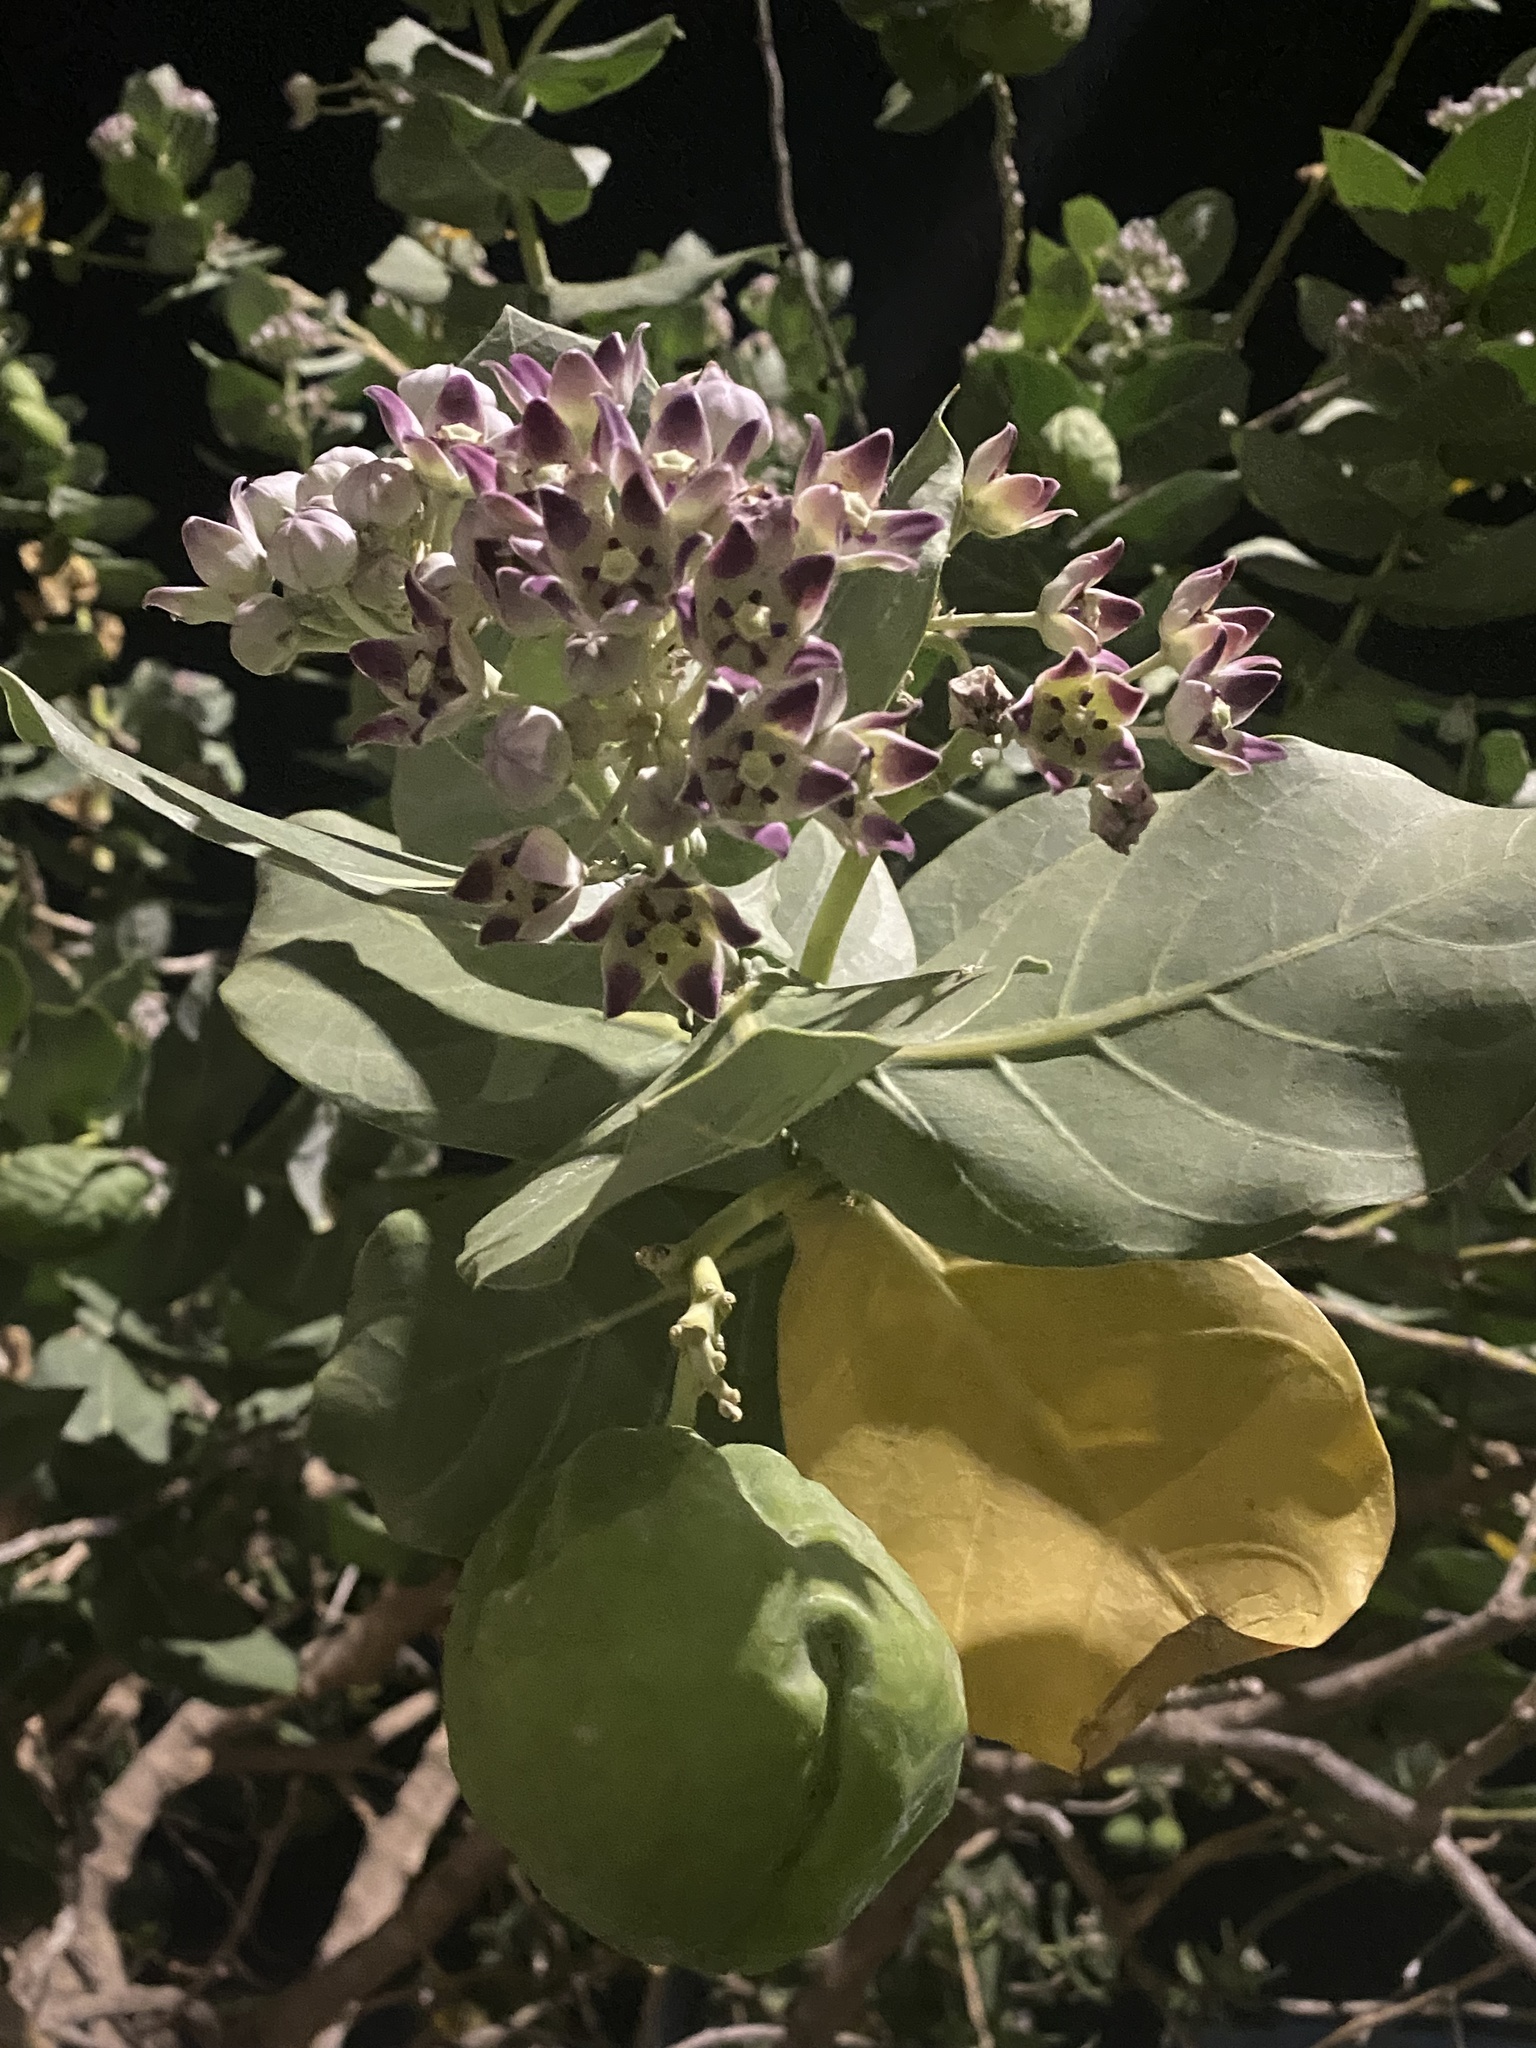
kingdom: Plantae
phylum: Tracheophyta
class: Magnoliopsida
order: Gentianales
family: Apocynaceae
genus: Calotropis
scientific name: Calotropis procera
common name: Roostertree
